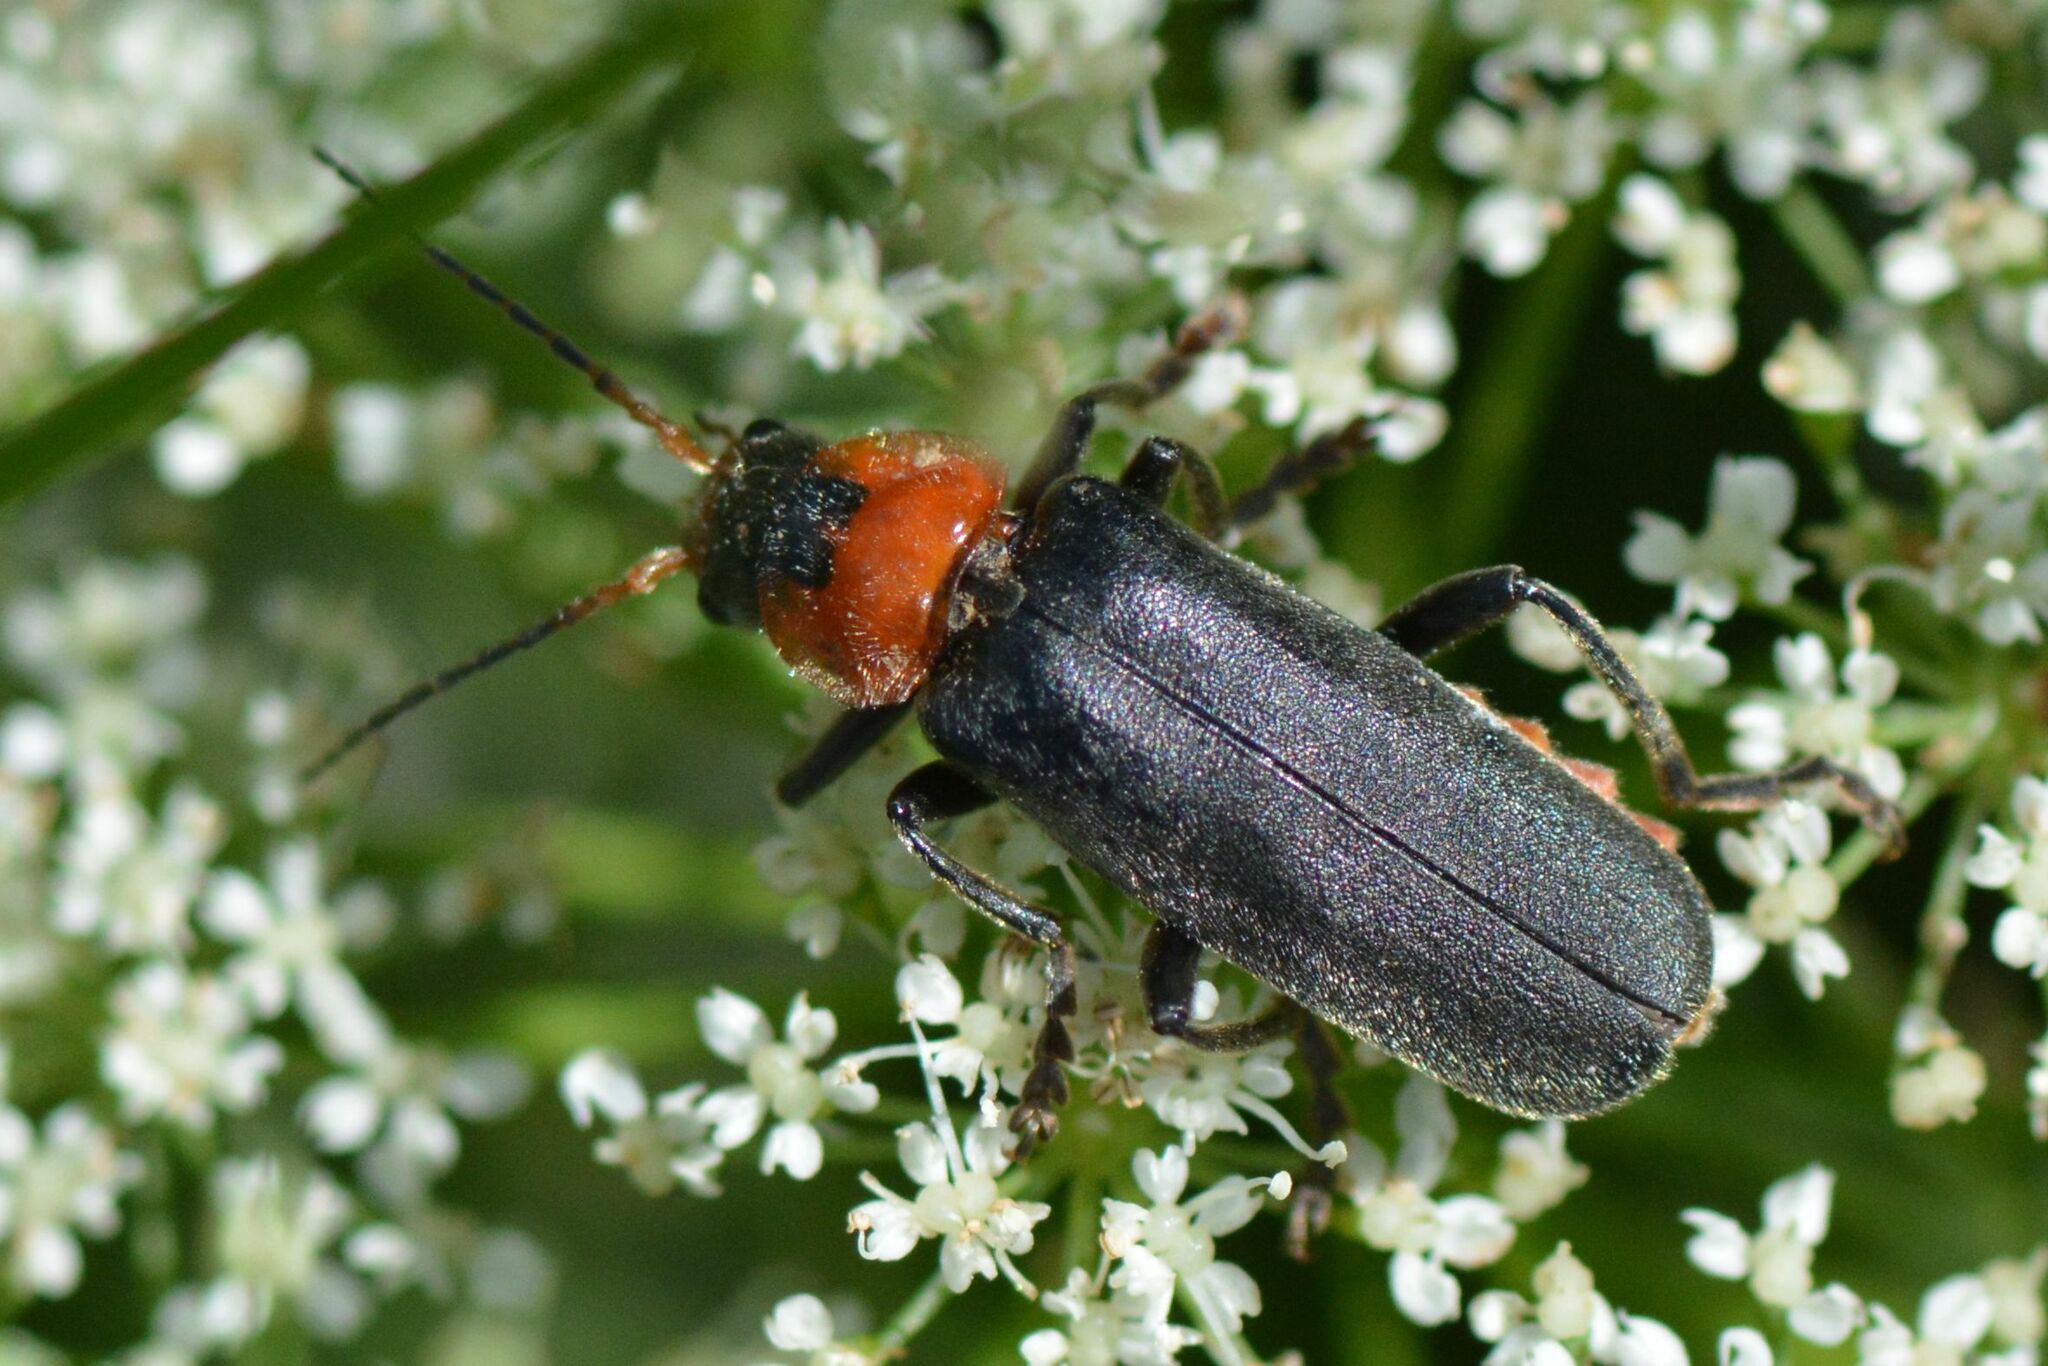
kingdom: Animalia
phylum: Arthropoda
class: Insecta
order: Coleoptera
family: Cantharidae
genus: Cantharis
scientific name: Cantharis fusca
